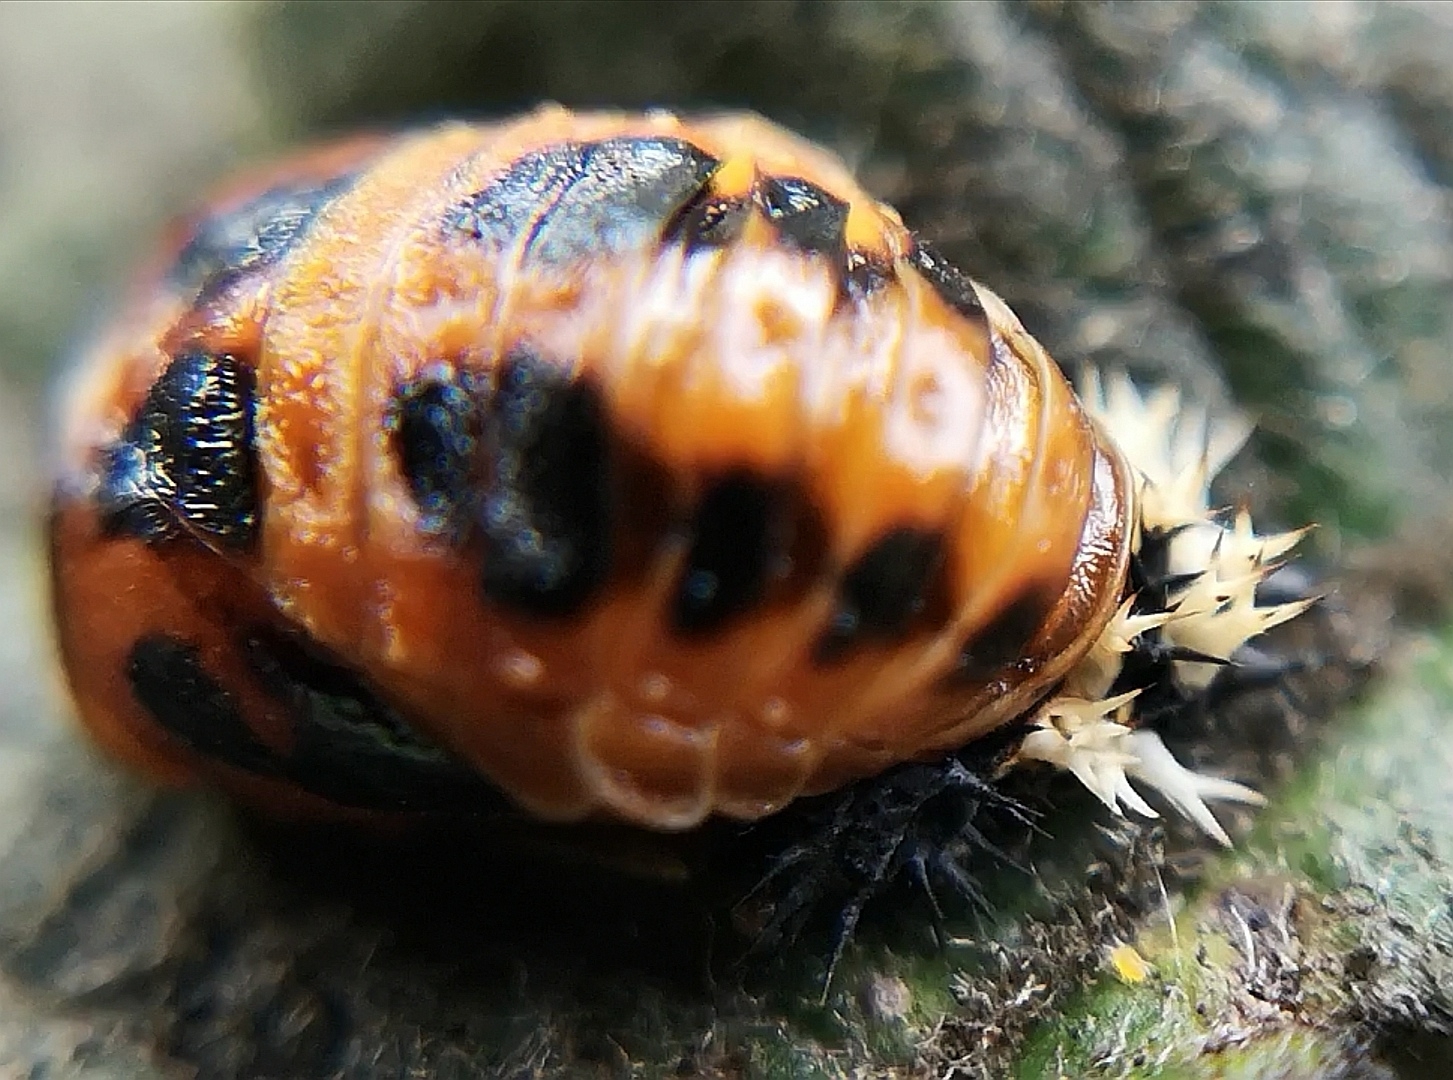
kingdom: Animalia
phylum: Arthropoda
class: Insecta
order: Coleoptera
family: Coccinellidae
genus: Harmonia
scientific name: Harmonia axyridis
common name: Harlequin ladybird
